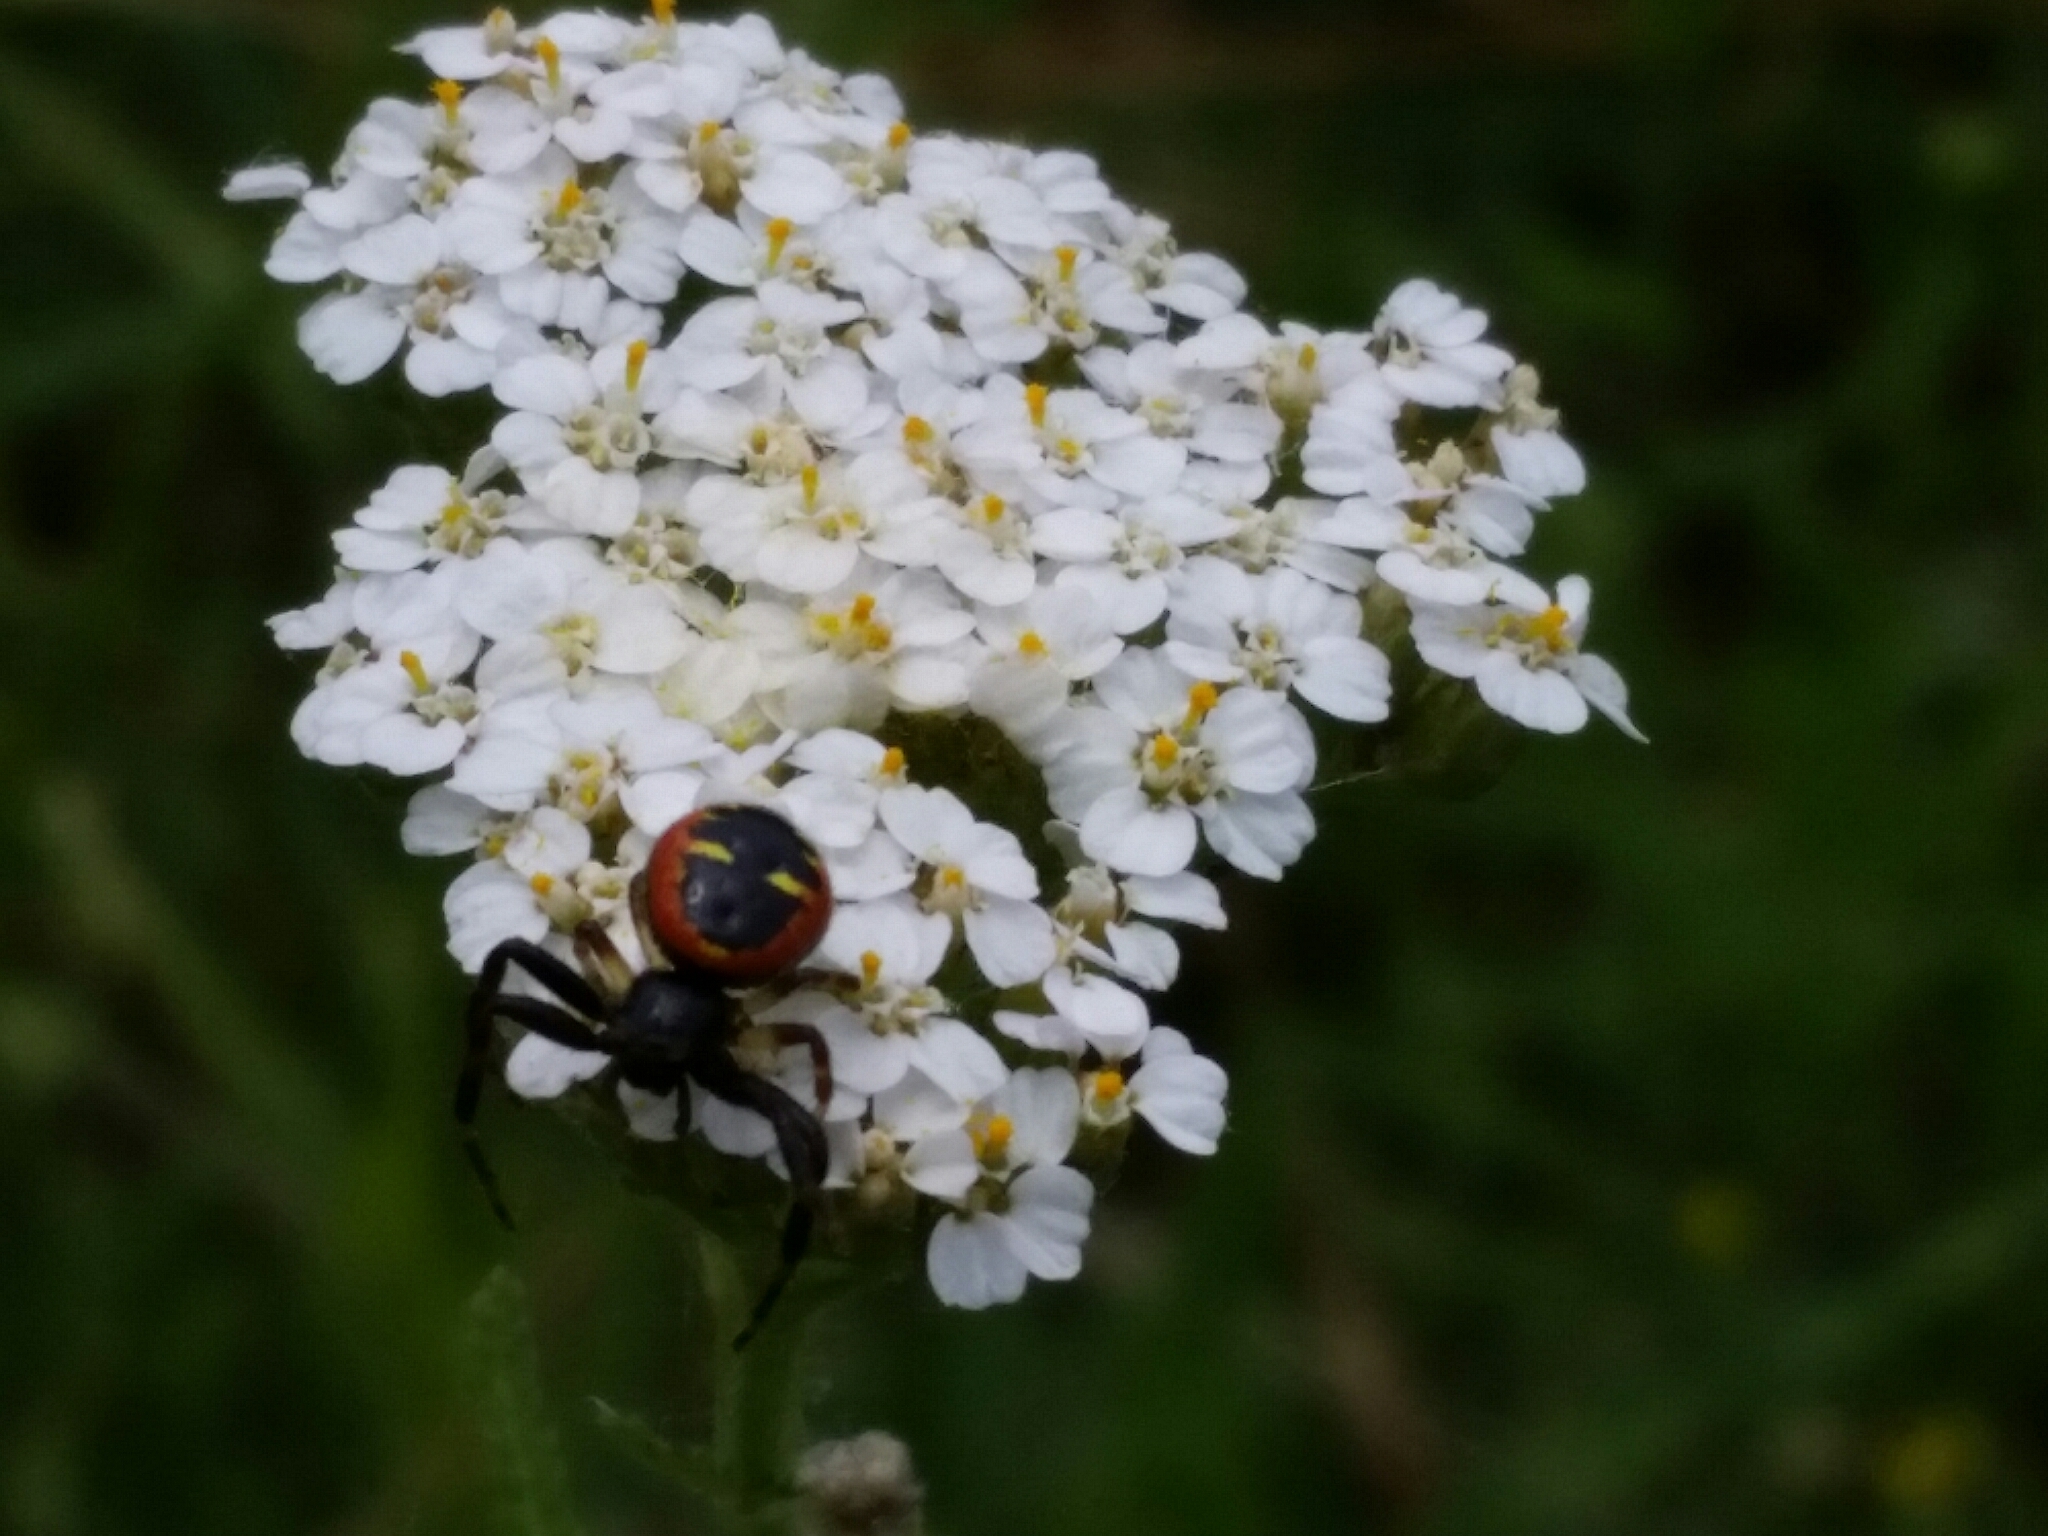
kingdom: Animalia
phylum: Arthropoda
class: Arachnida
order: Araneae
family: Thomisidae
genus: Synema
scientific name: Synema globosum
